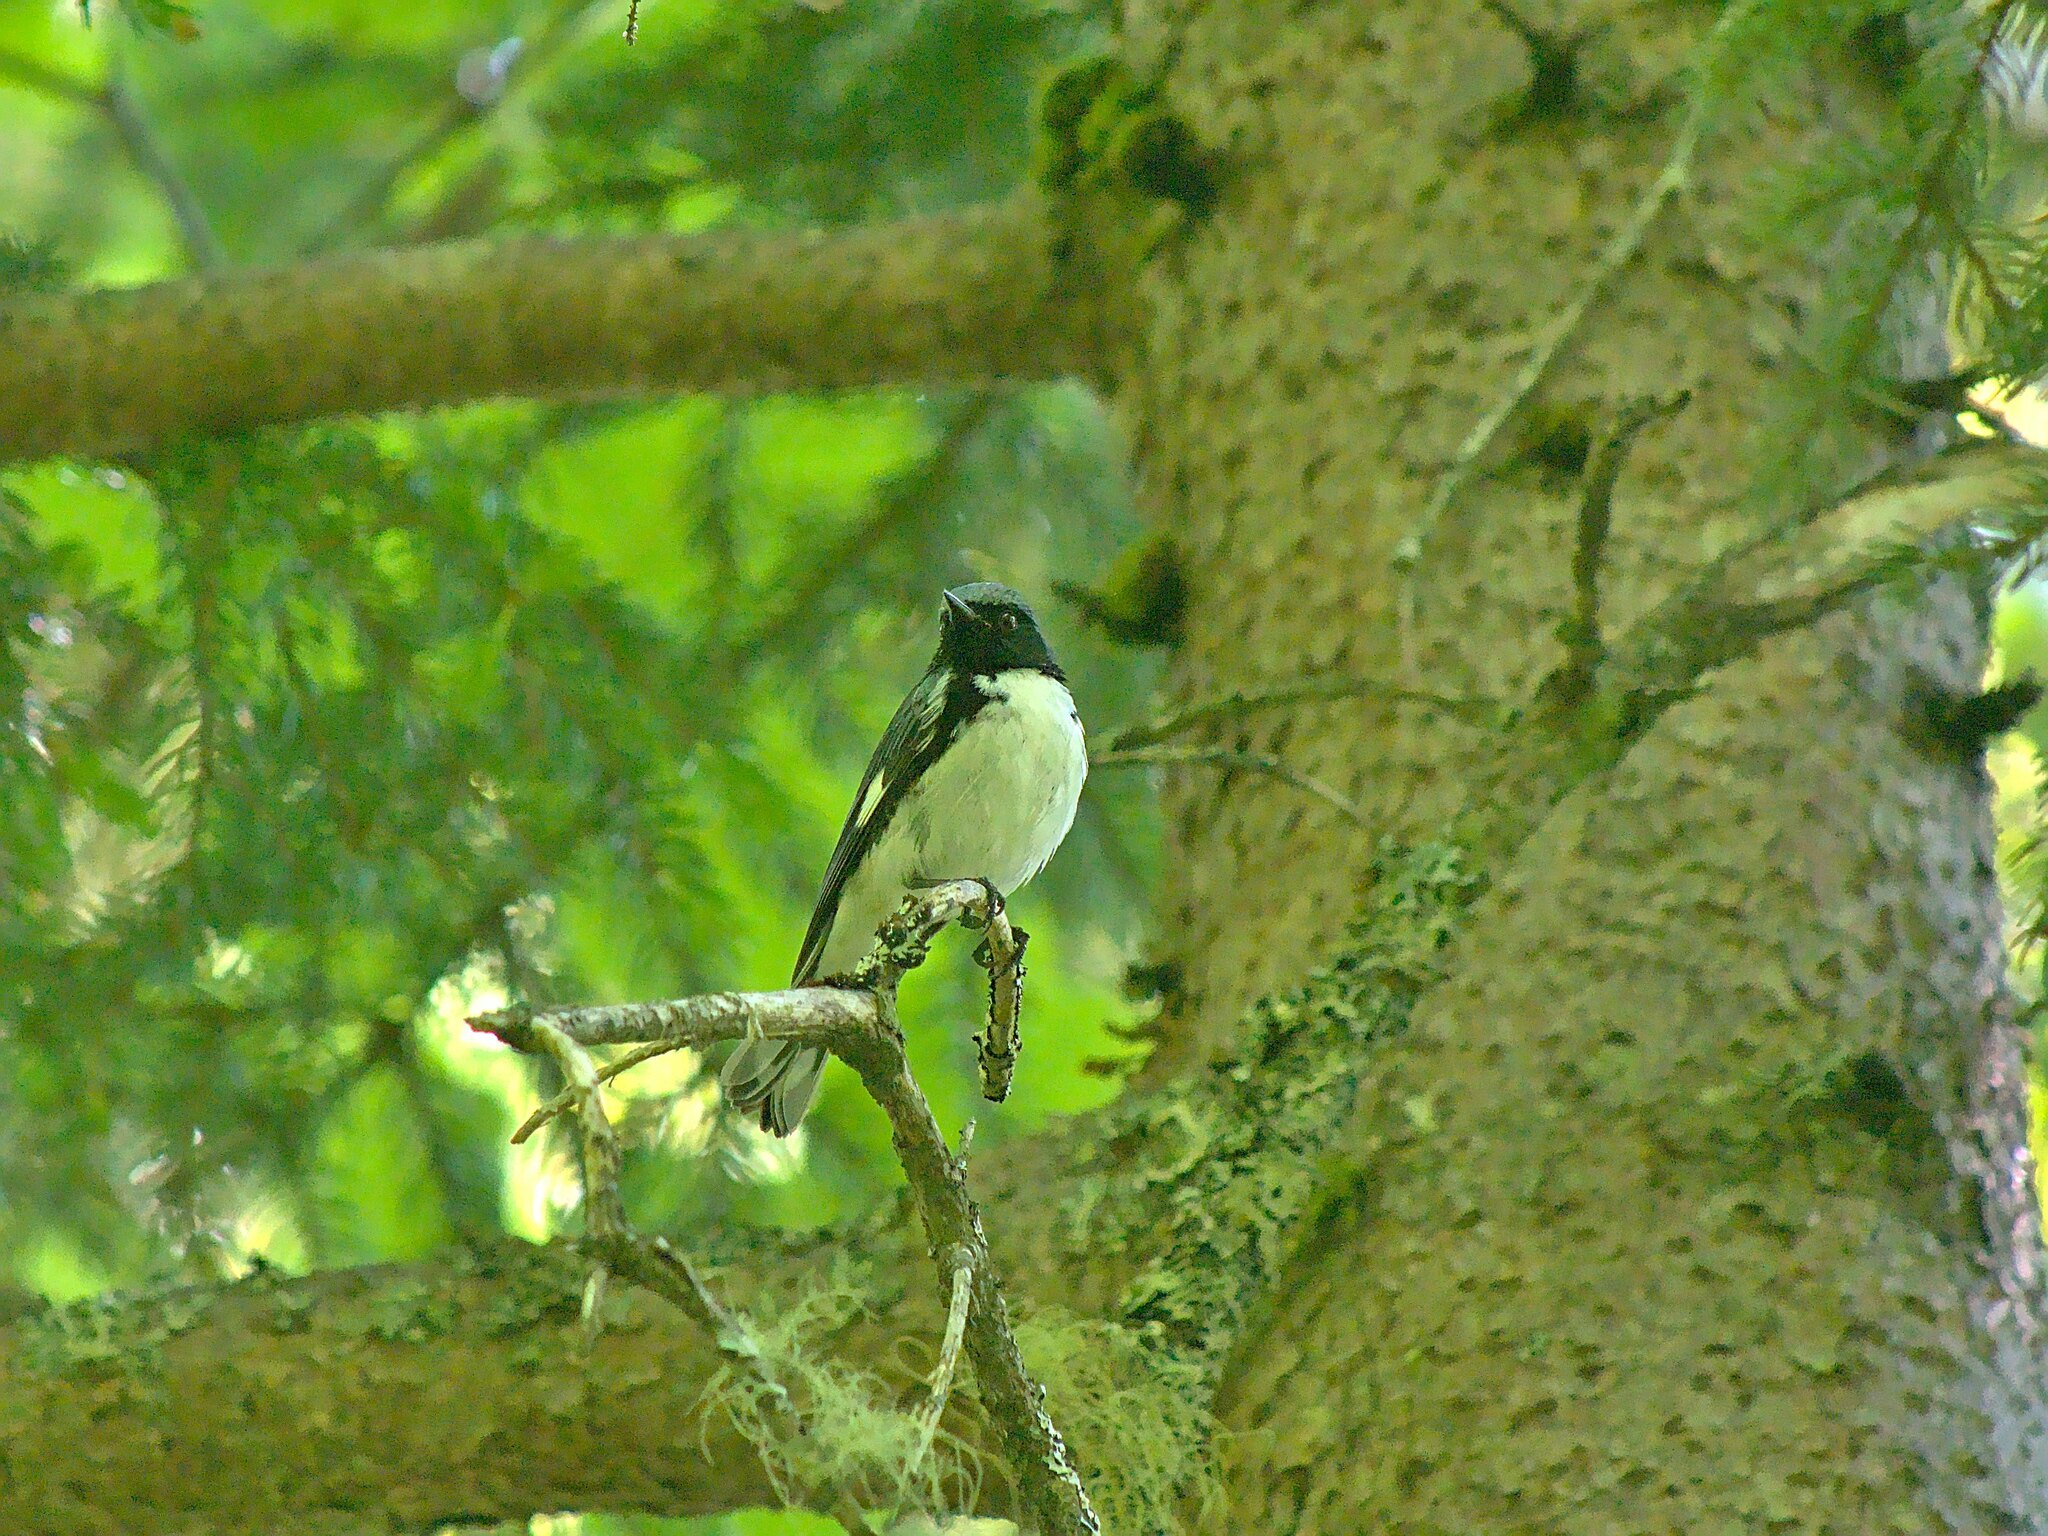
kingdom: Animalia
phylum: Chordata
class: Aves
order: Passeriformes
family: Parulidae
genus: Setophaga
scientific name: Setophaga caerulescens
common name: Black-throated blue warbler
